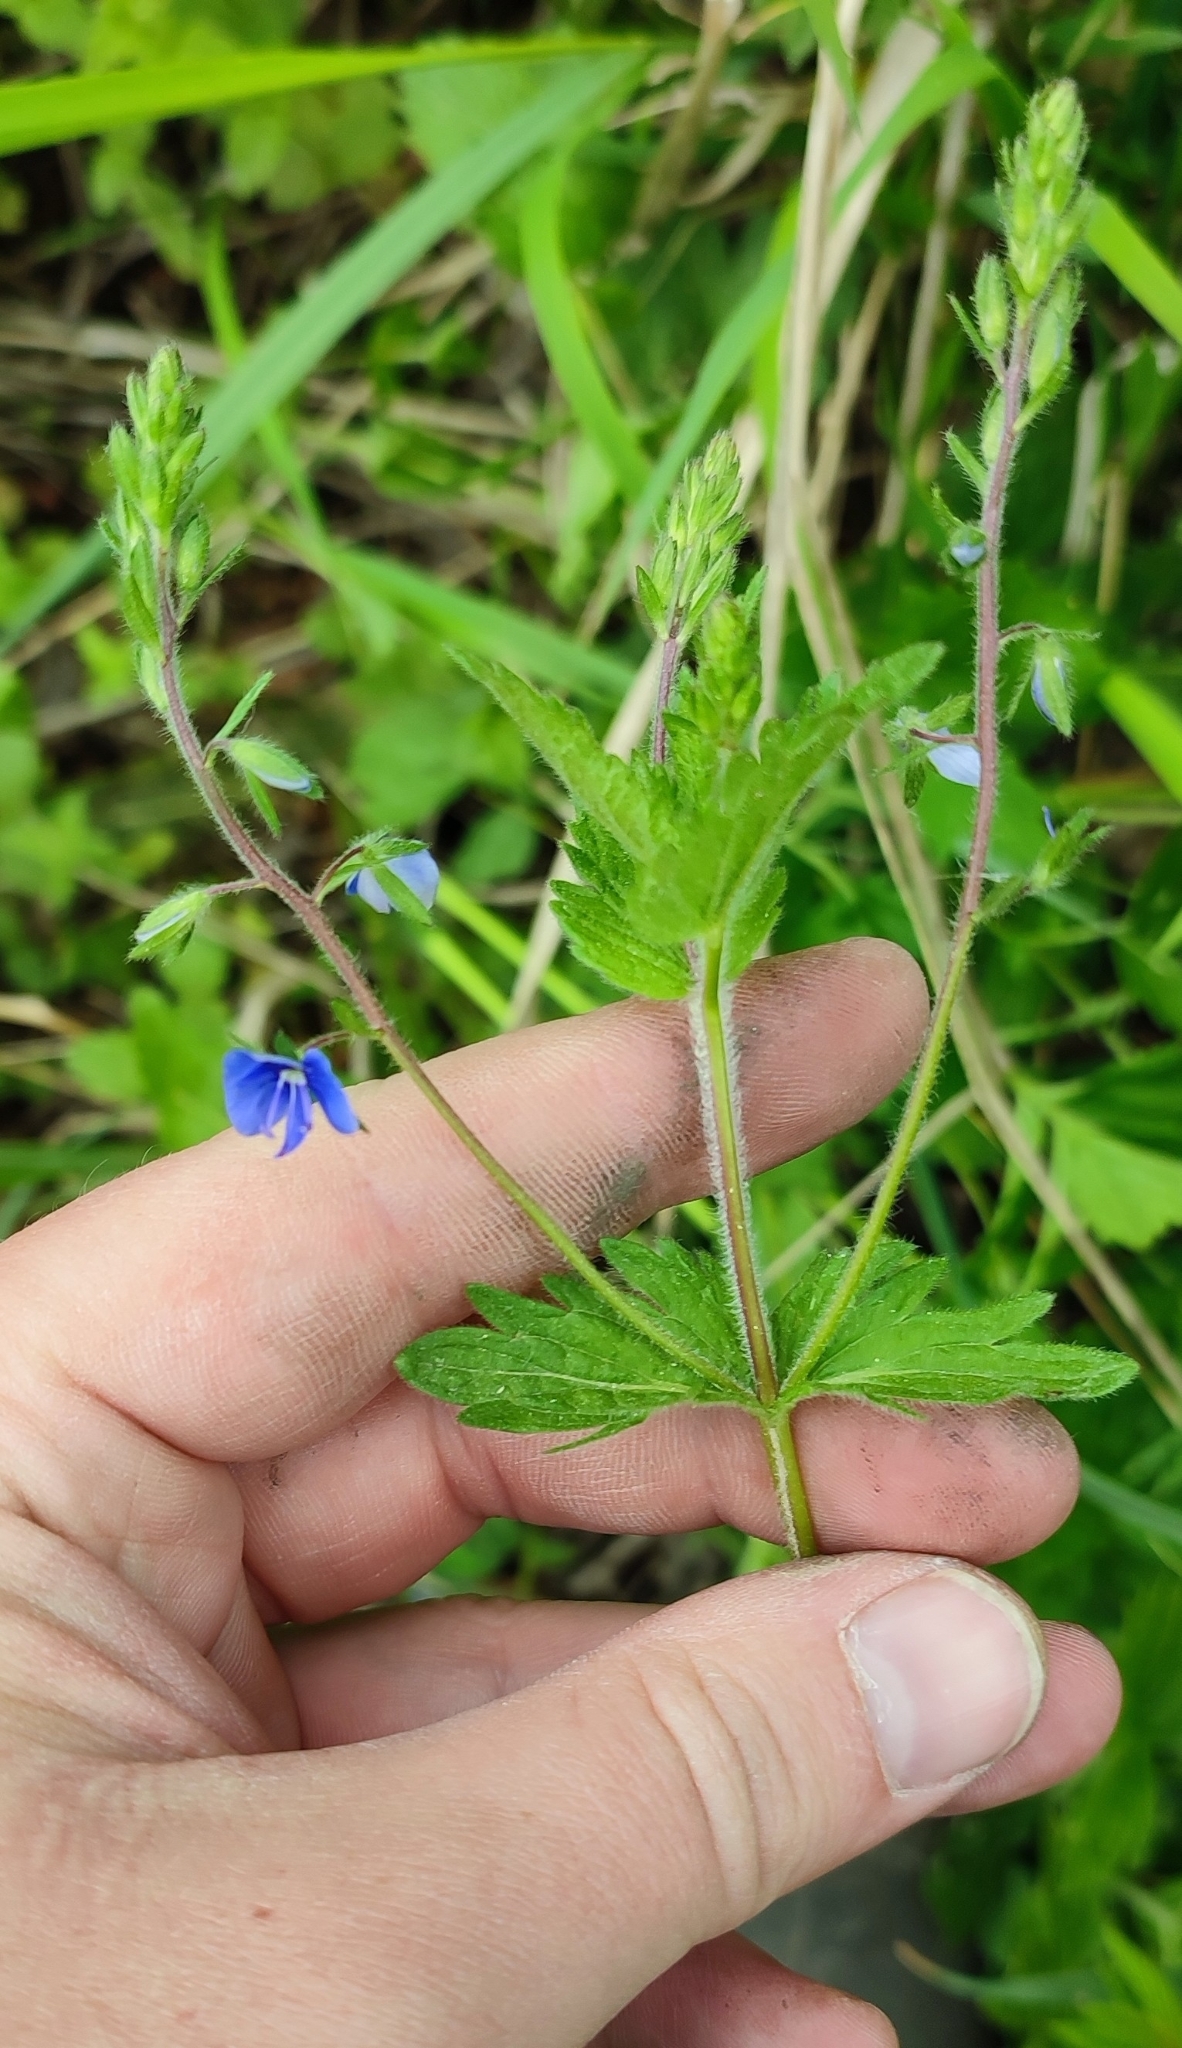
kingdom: Plantae
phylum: Tracheophyta
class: Magnoliopsida
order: Lamiales
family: Plantaginaceae
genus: Veronica
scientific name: Veronica chamaedrys
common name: Germander speedwell
